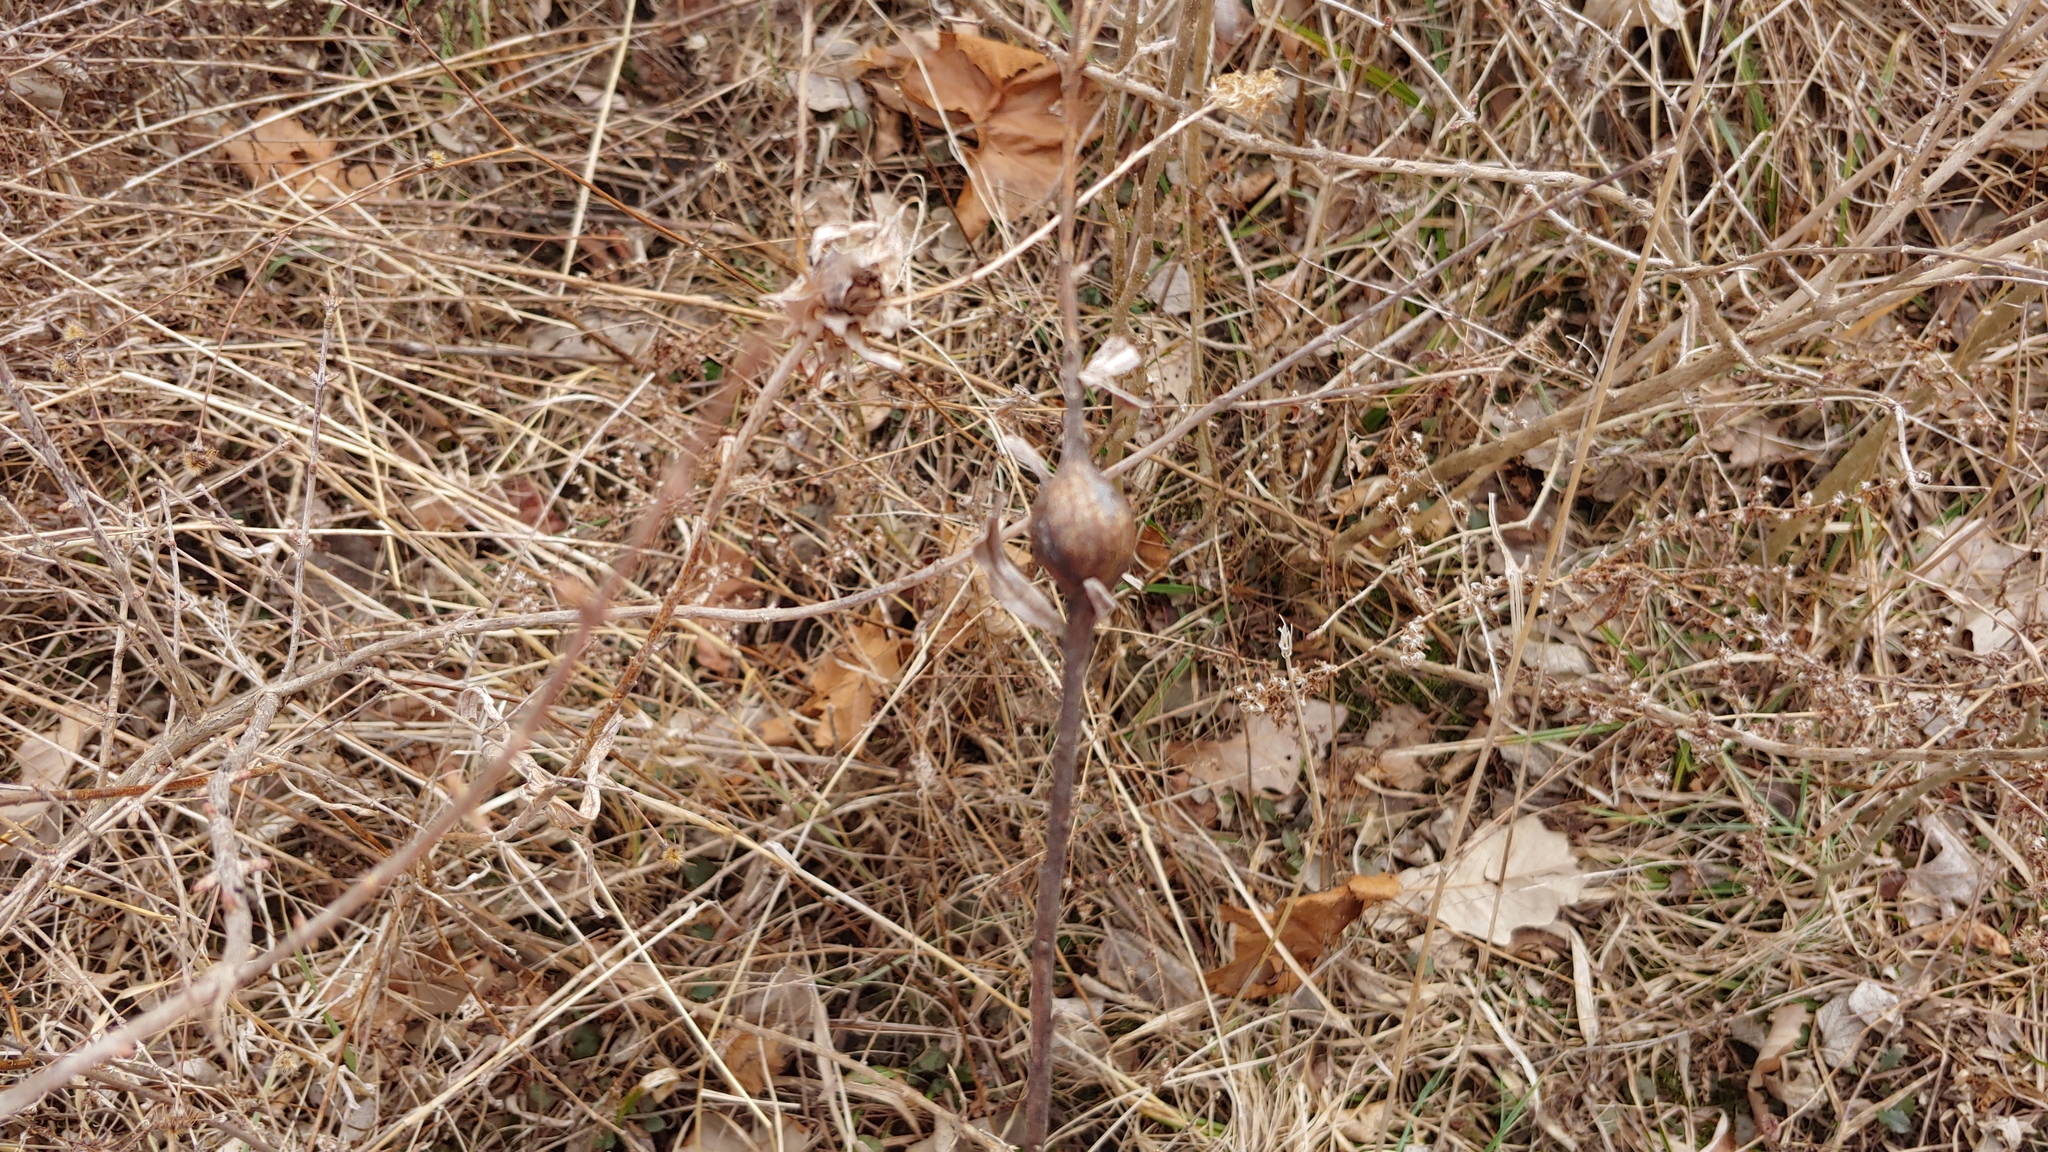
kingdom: Animalia
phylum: Arthropoda
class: Insecta
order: Diptera
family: Tephritidae
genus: Eurosta
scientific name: Eurosta solidaginis
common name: Goldenrod gall fly
